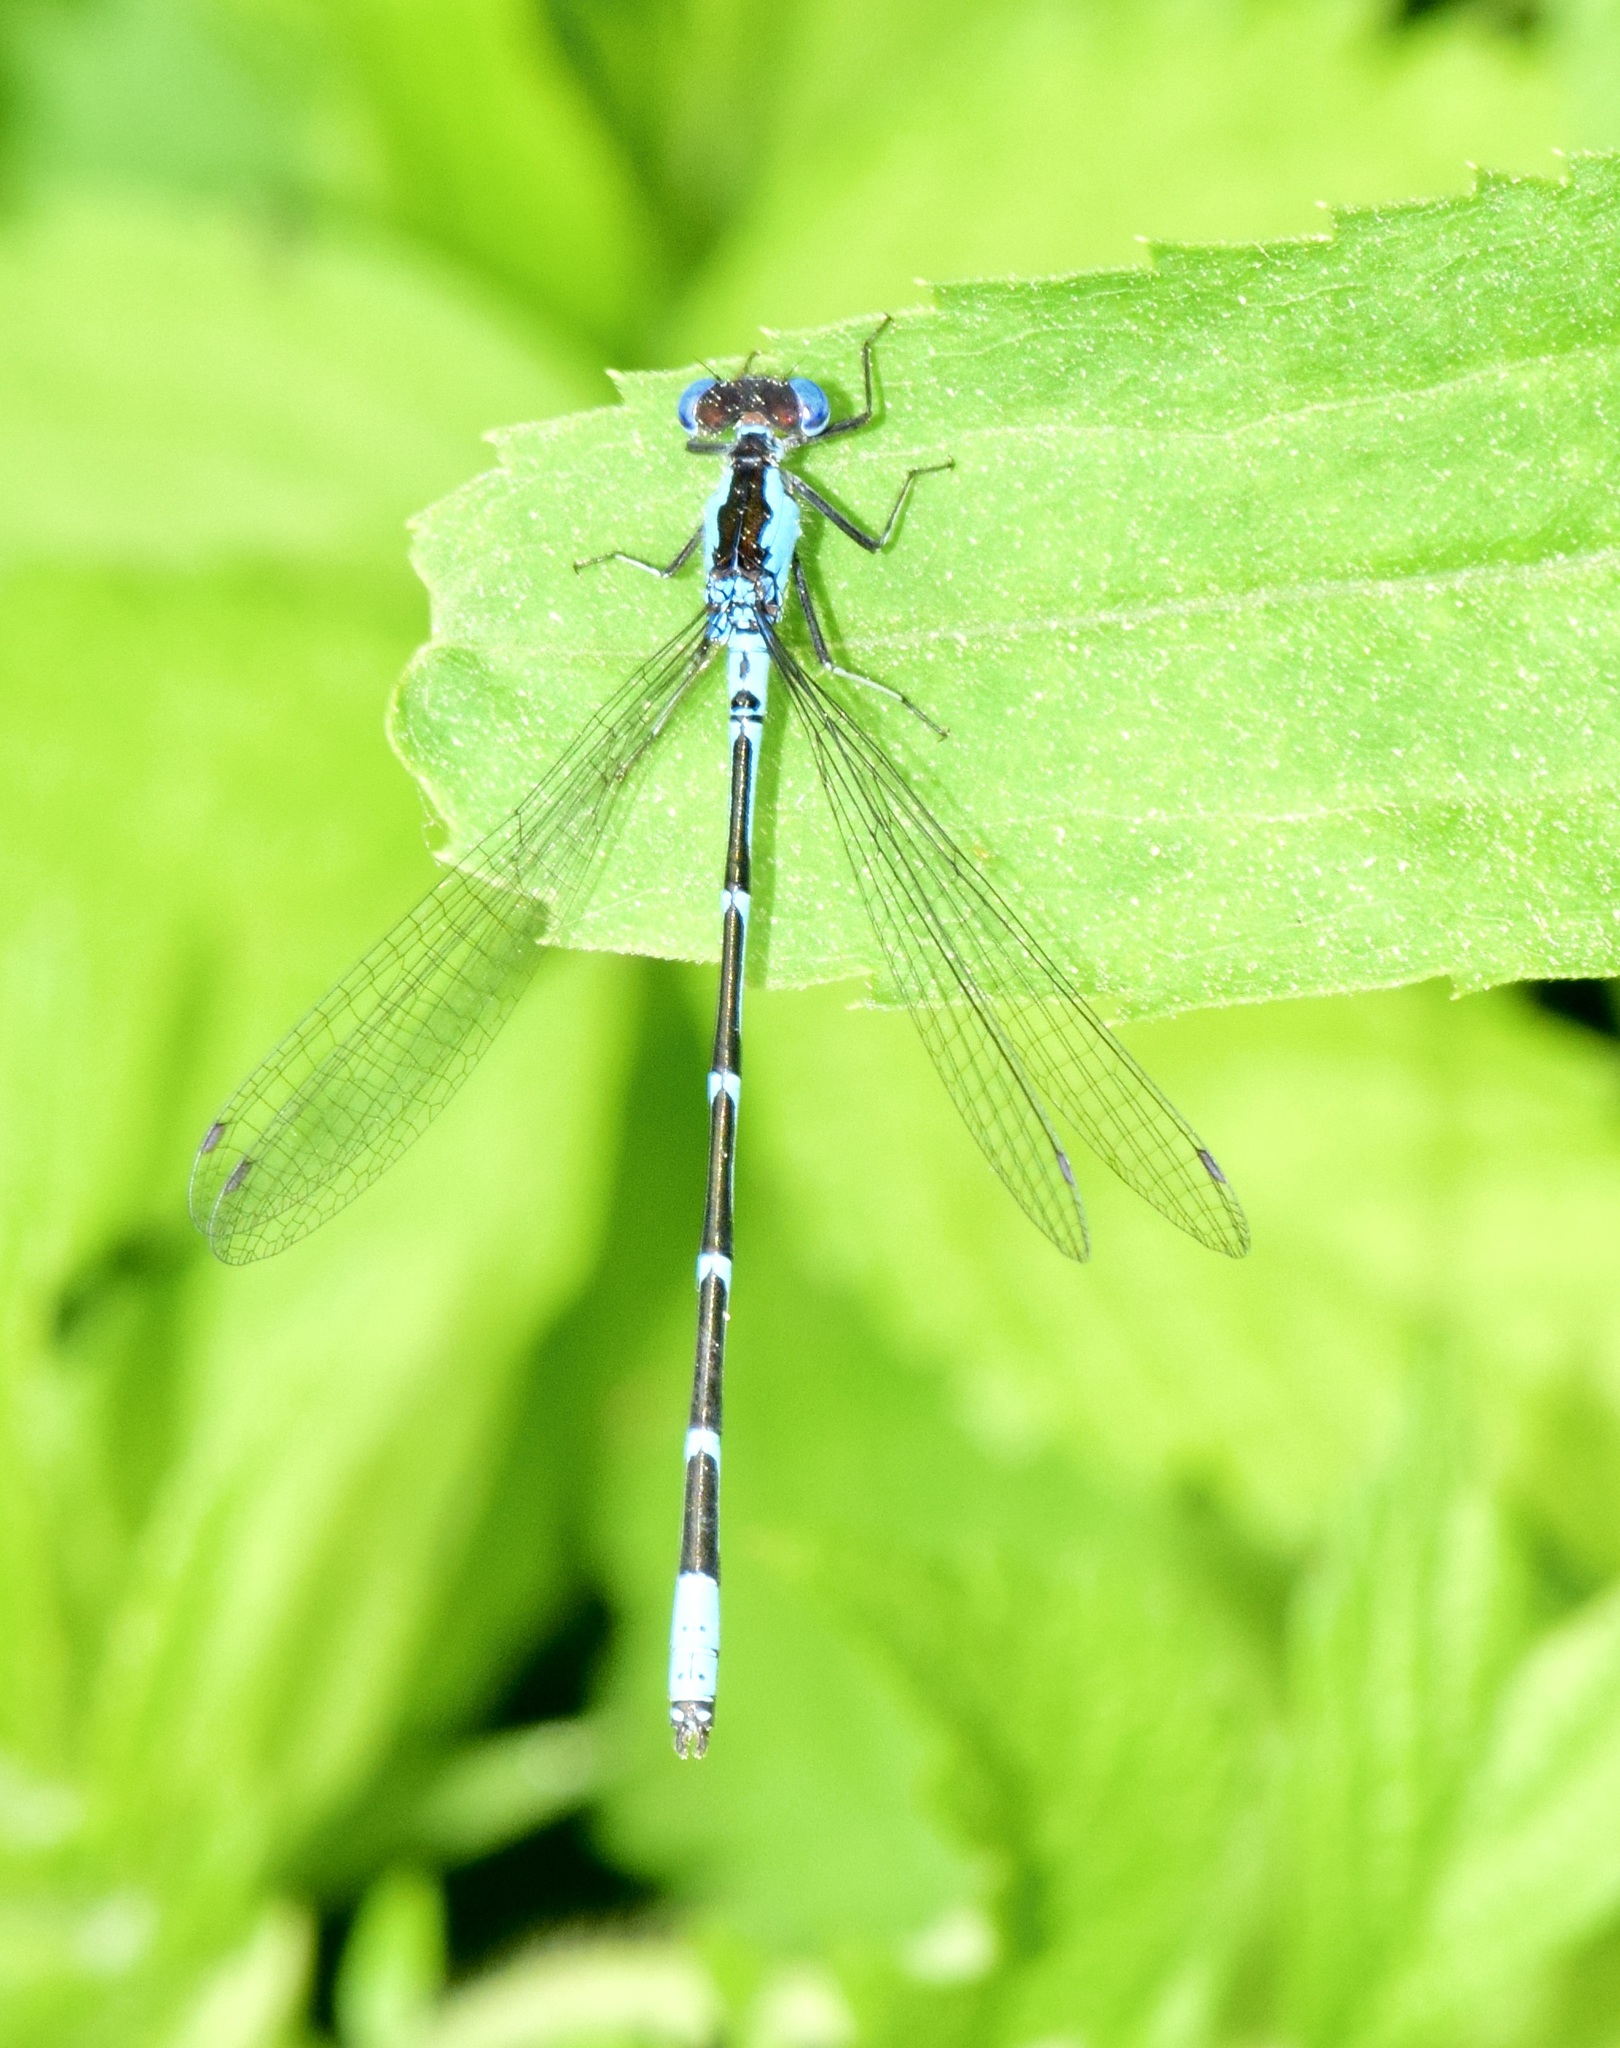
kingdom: Animalia
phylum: Arthropoda
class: Insecta
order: Odonata
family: Coenagrionidae
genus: Chromagrion
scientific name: Chromagrion conditum
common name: Aurora damsel
